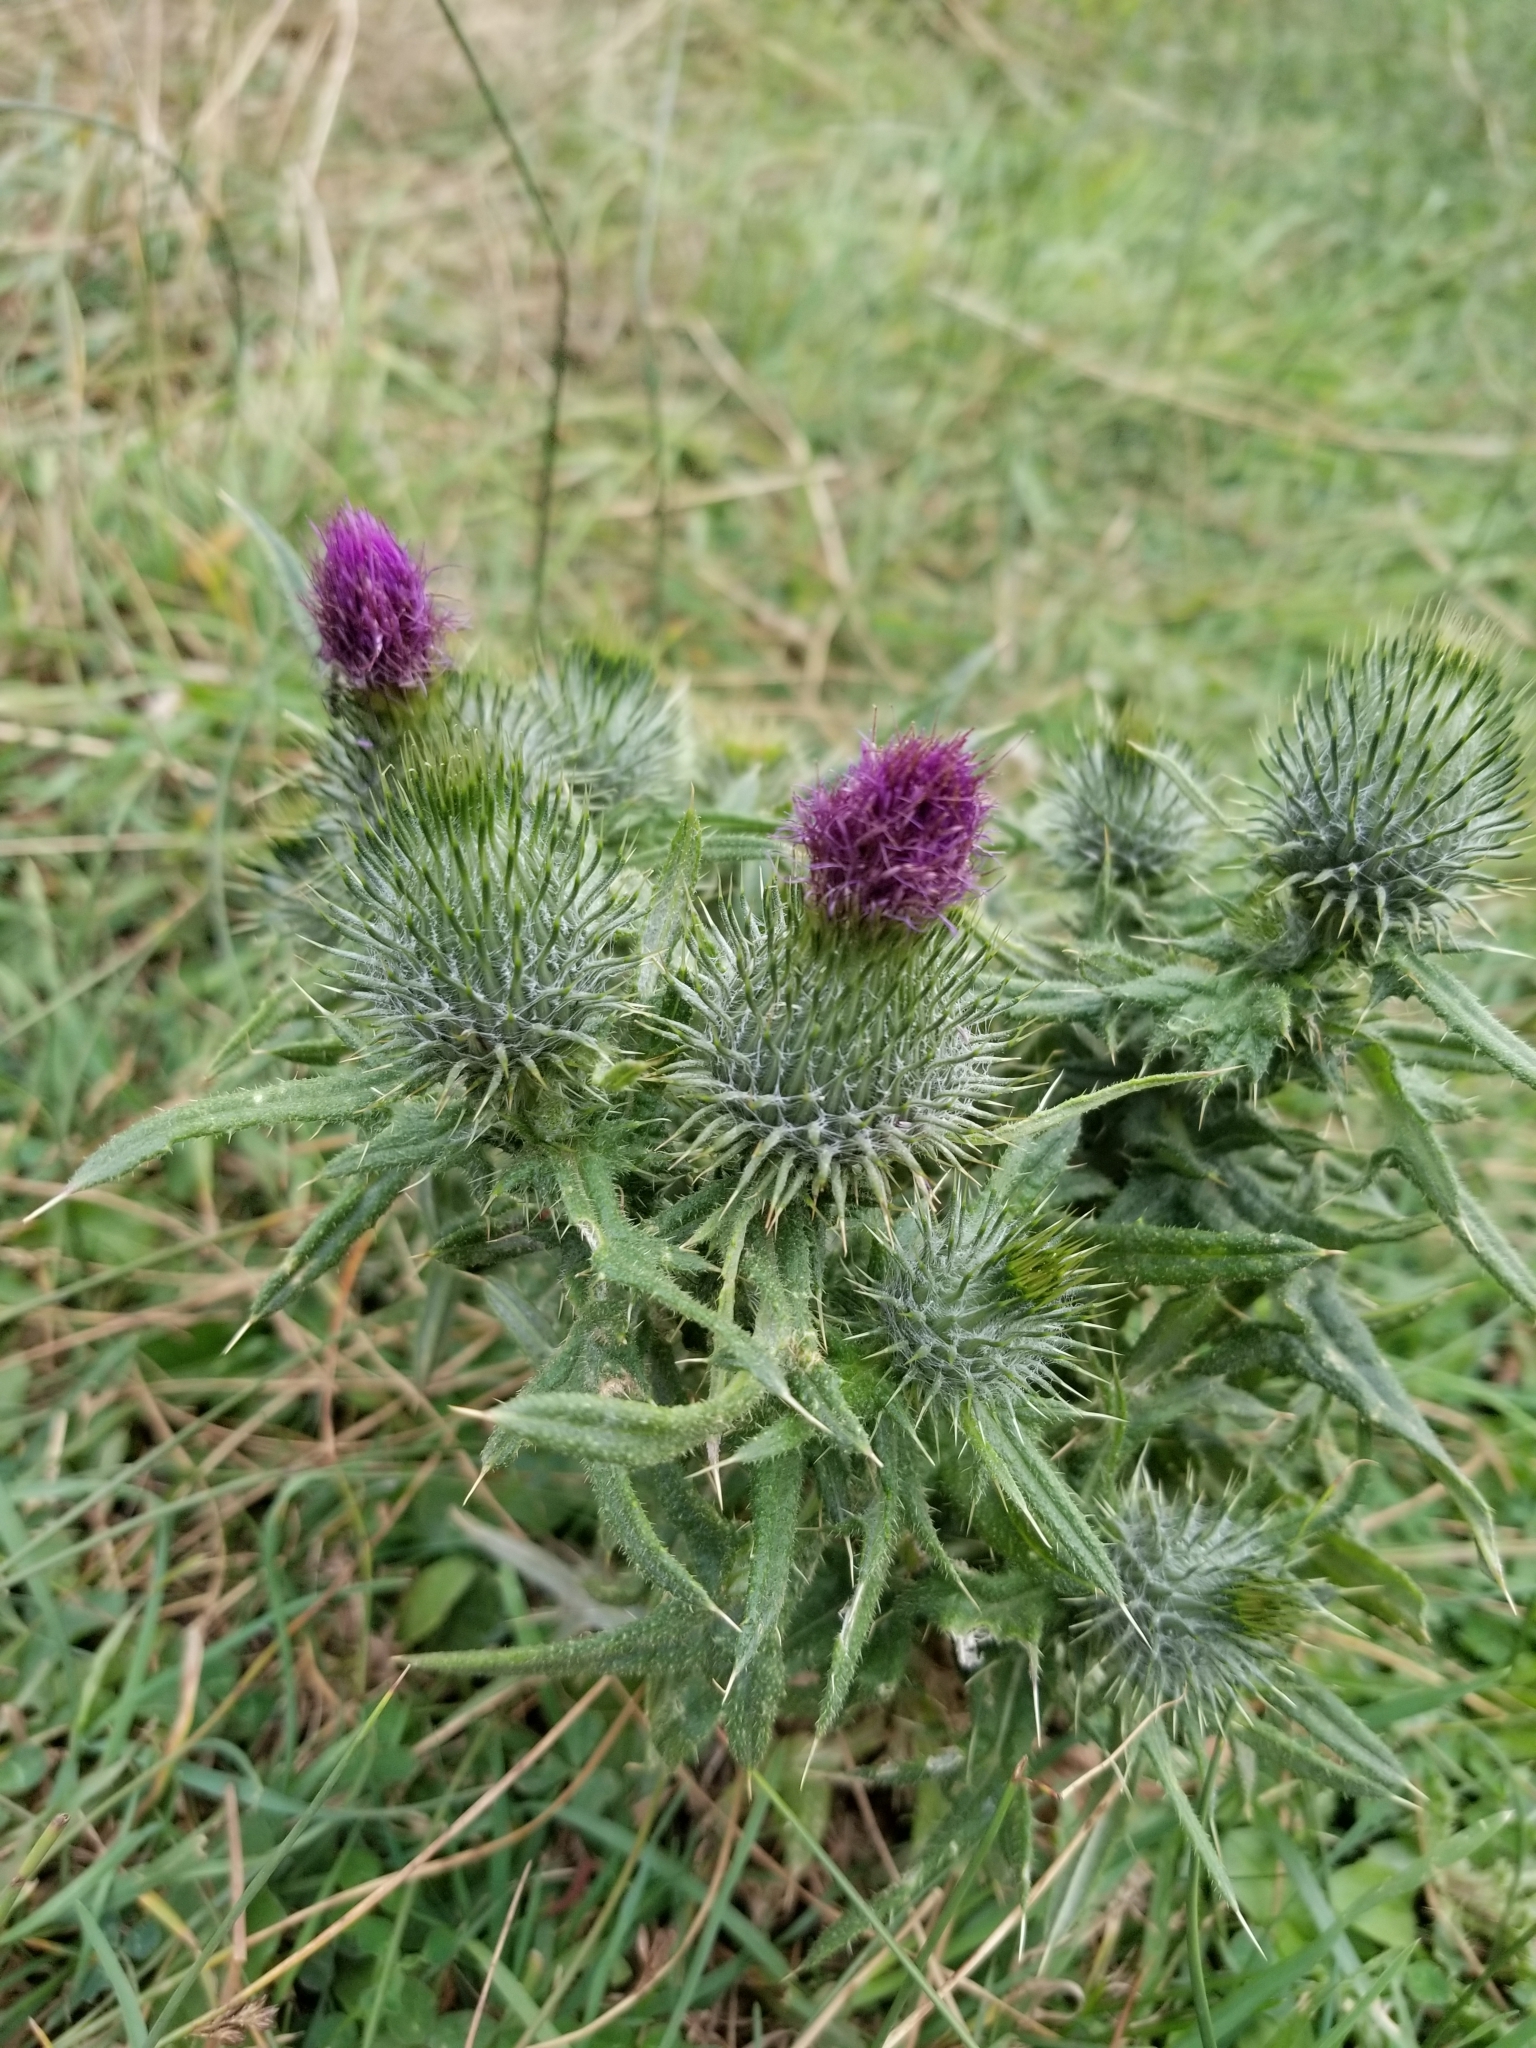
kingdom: Plantae
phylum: Tracheophyta
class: Magnoliopsida
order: Asterales
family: Asteraceae
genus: Cirsium
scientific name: Cirsium vulgare
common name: Bull thistle
